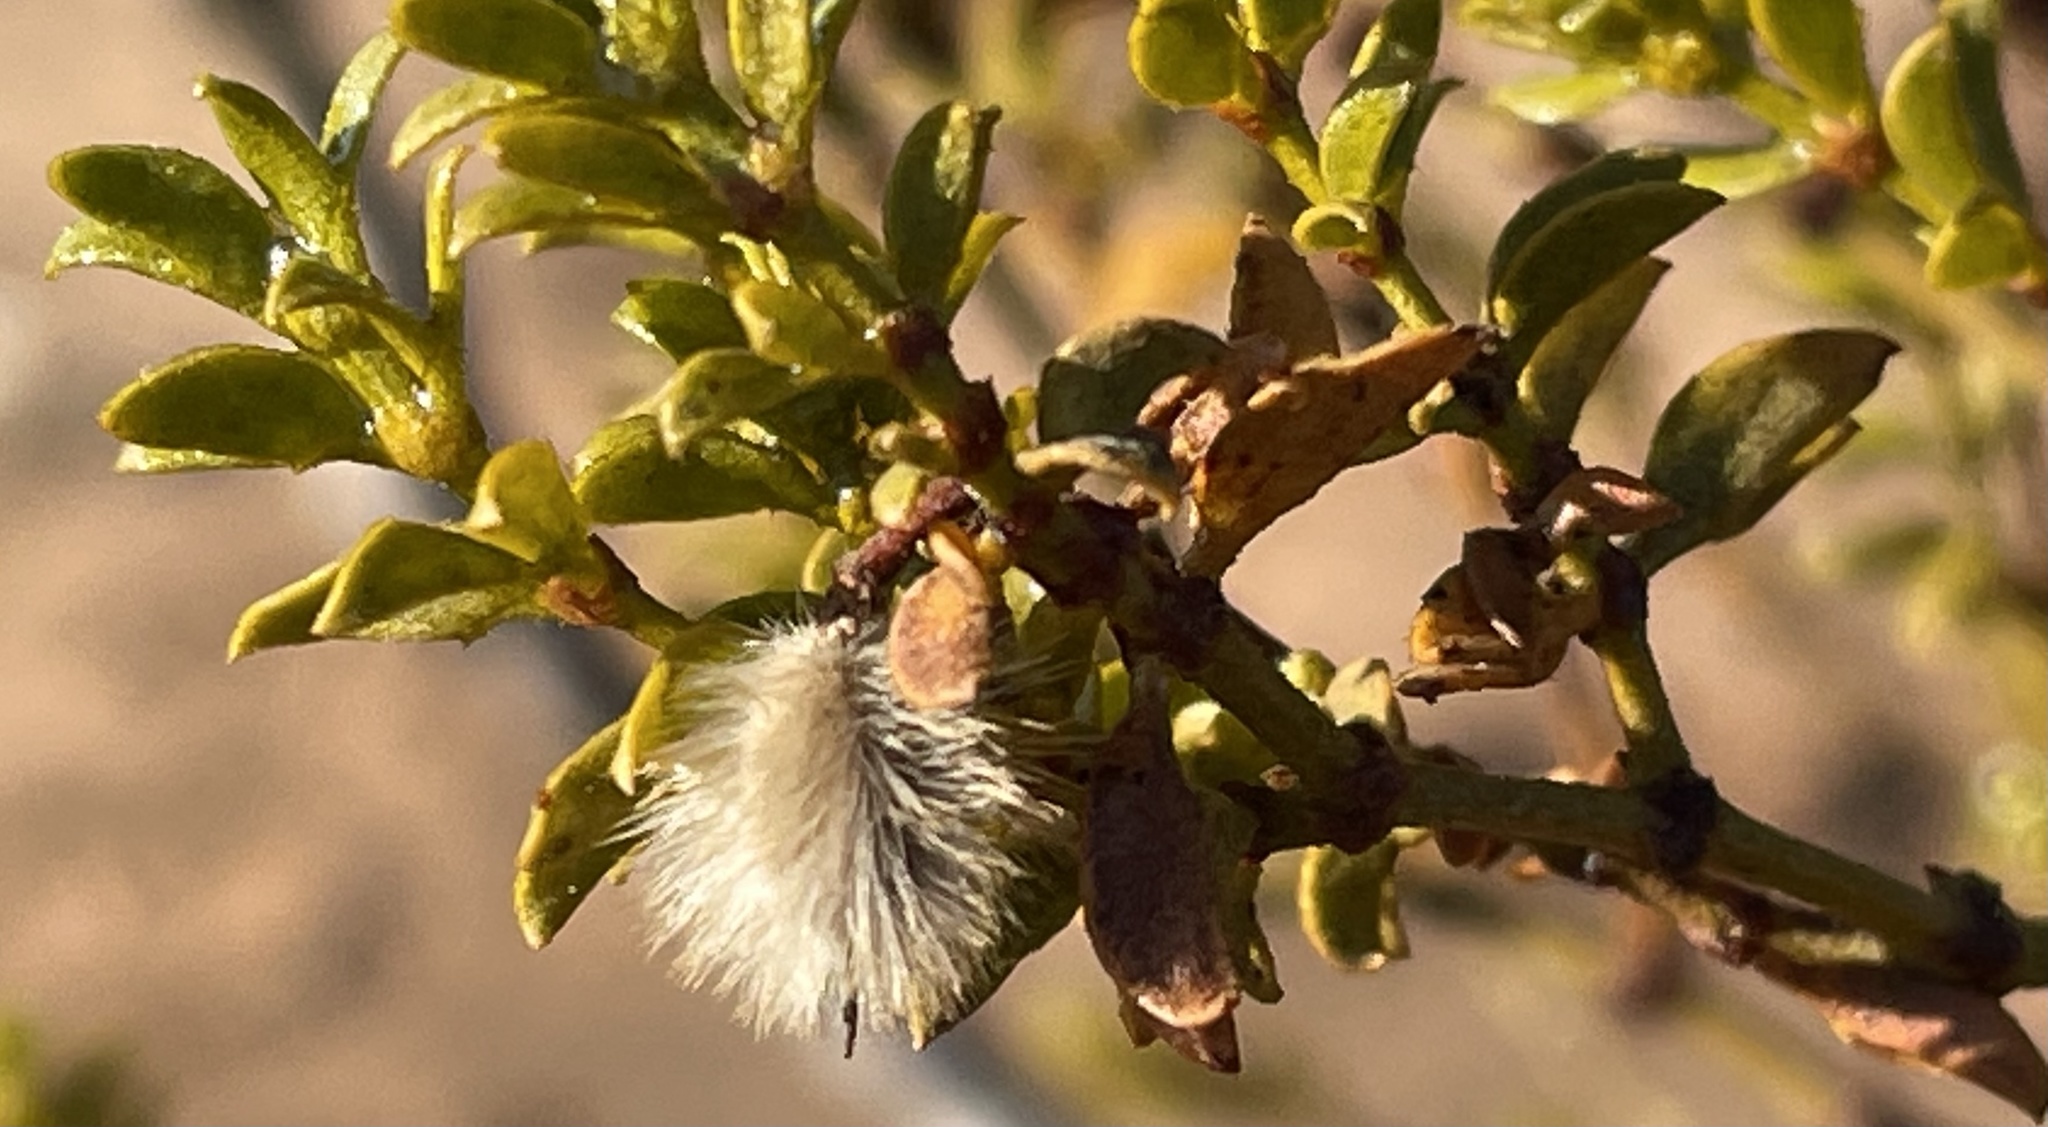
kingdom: Plantae
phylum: Tracheophyta
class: Magnoliopsida
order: Zygophyllales
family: Zygophyllaceae
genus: Larrea
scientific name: Larrea tridentata
